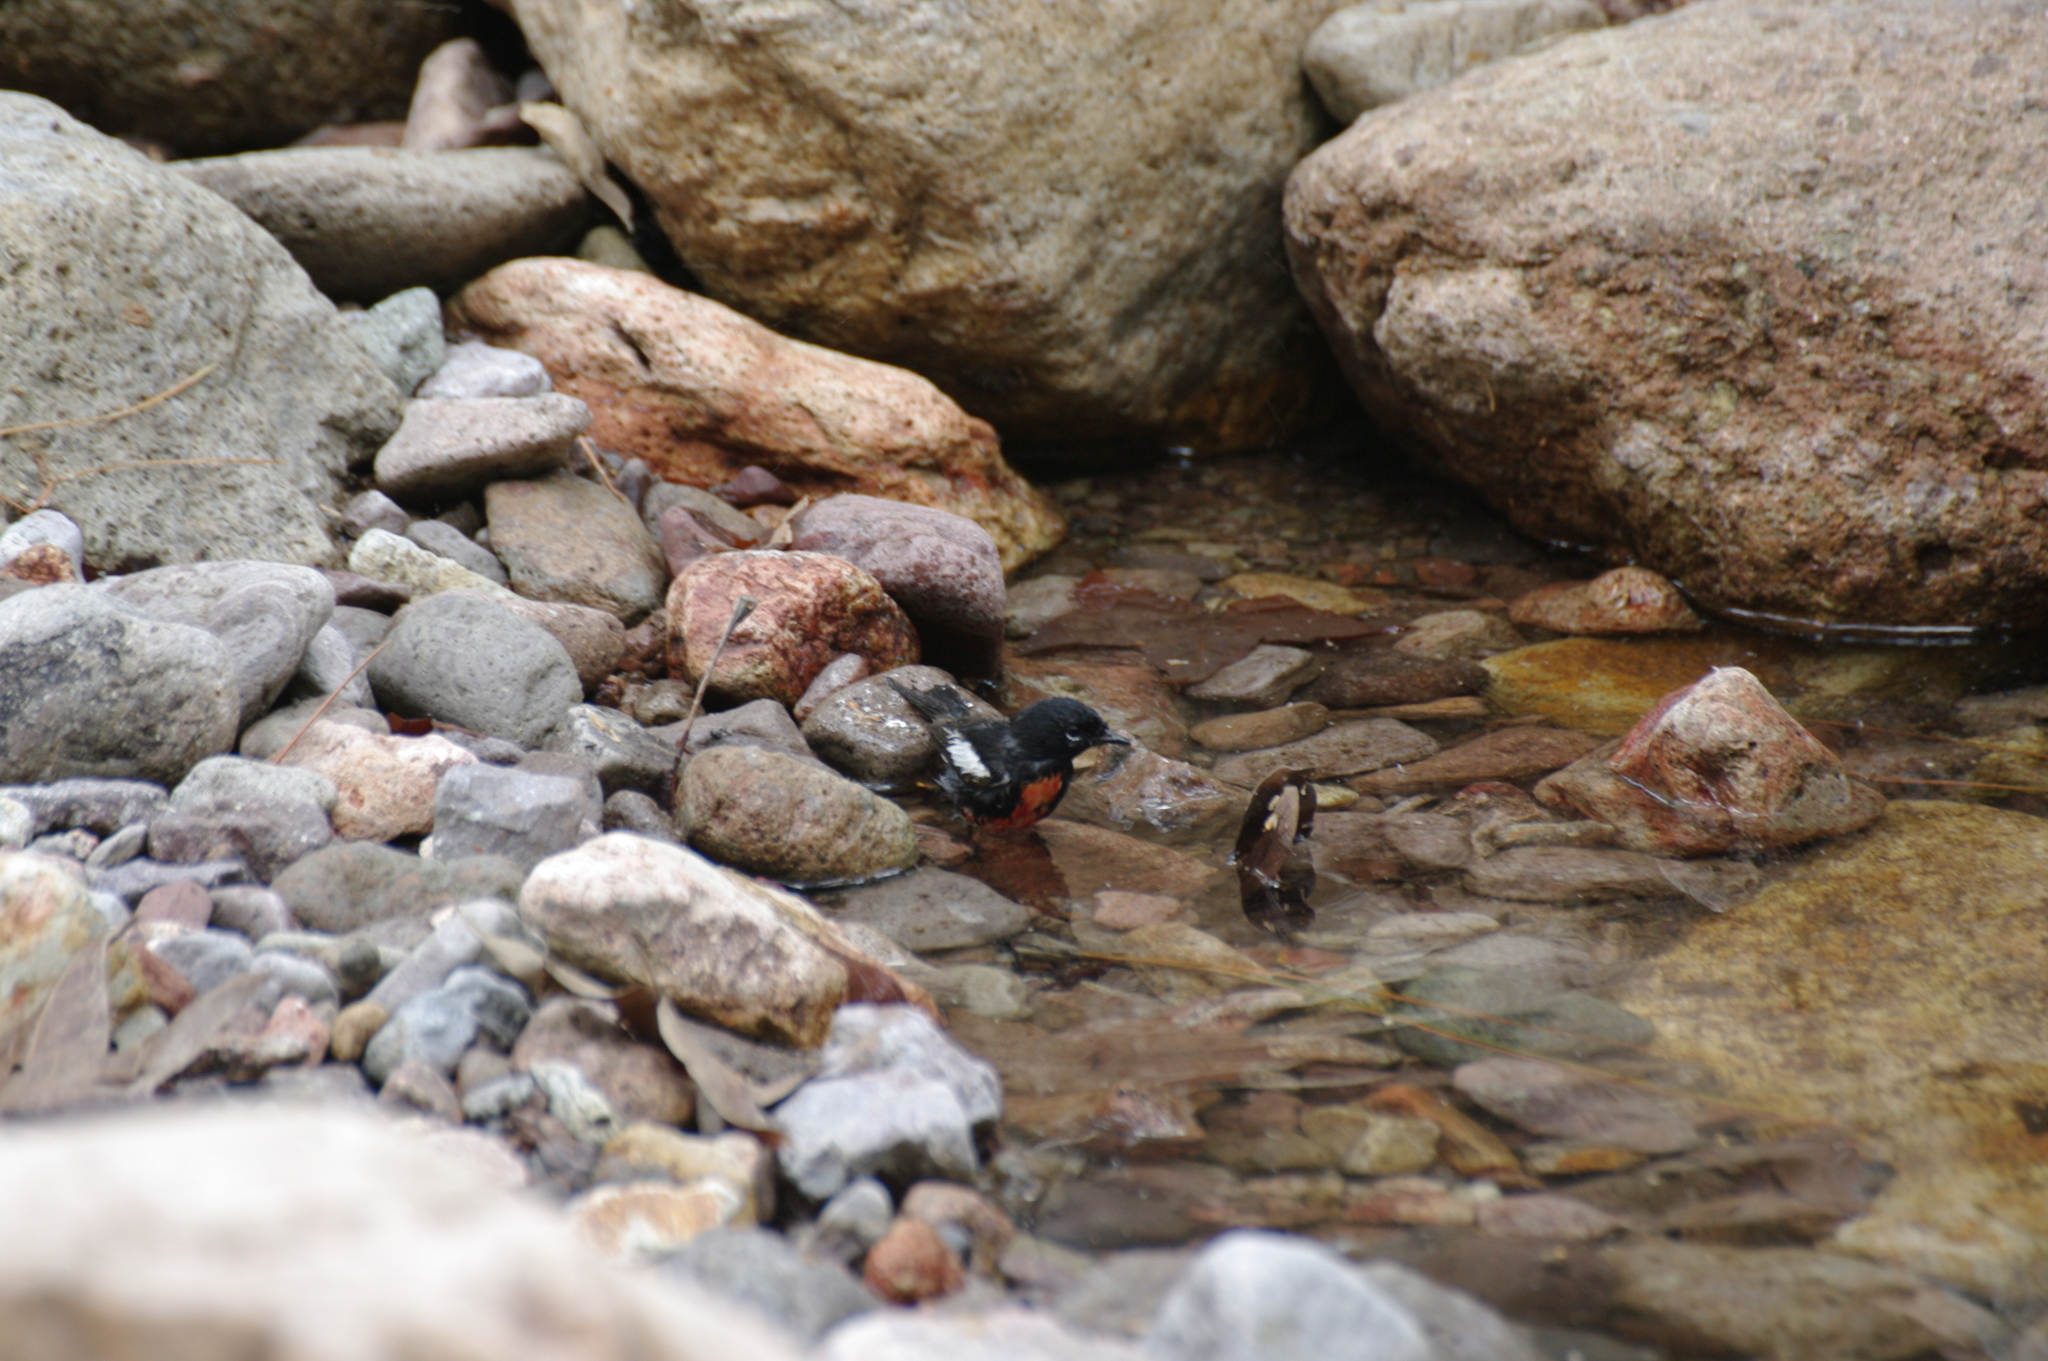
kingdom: Animalia
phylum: Chordata
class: Aves
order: Passeriformes
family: Parulidae
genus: Myioborus
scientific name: Myioborus pictus
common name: Painted whitestart
